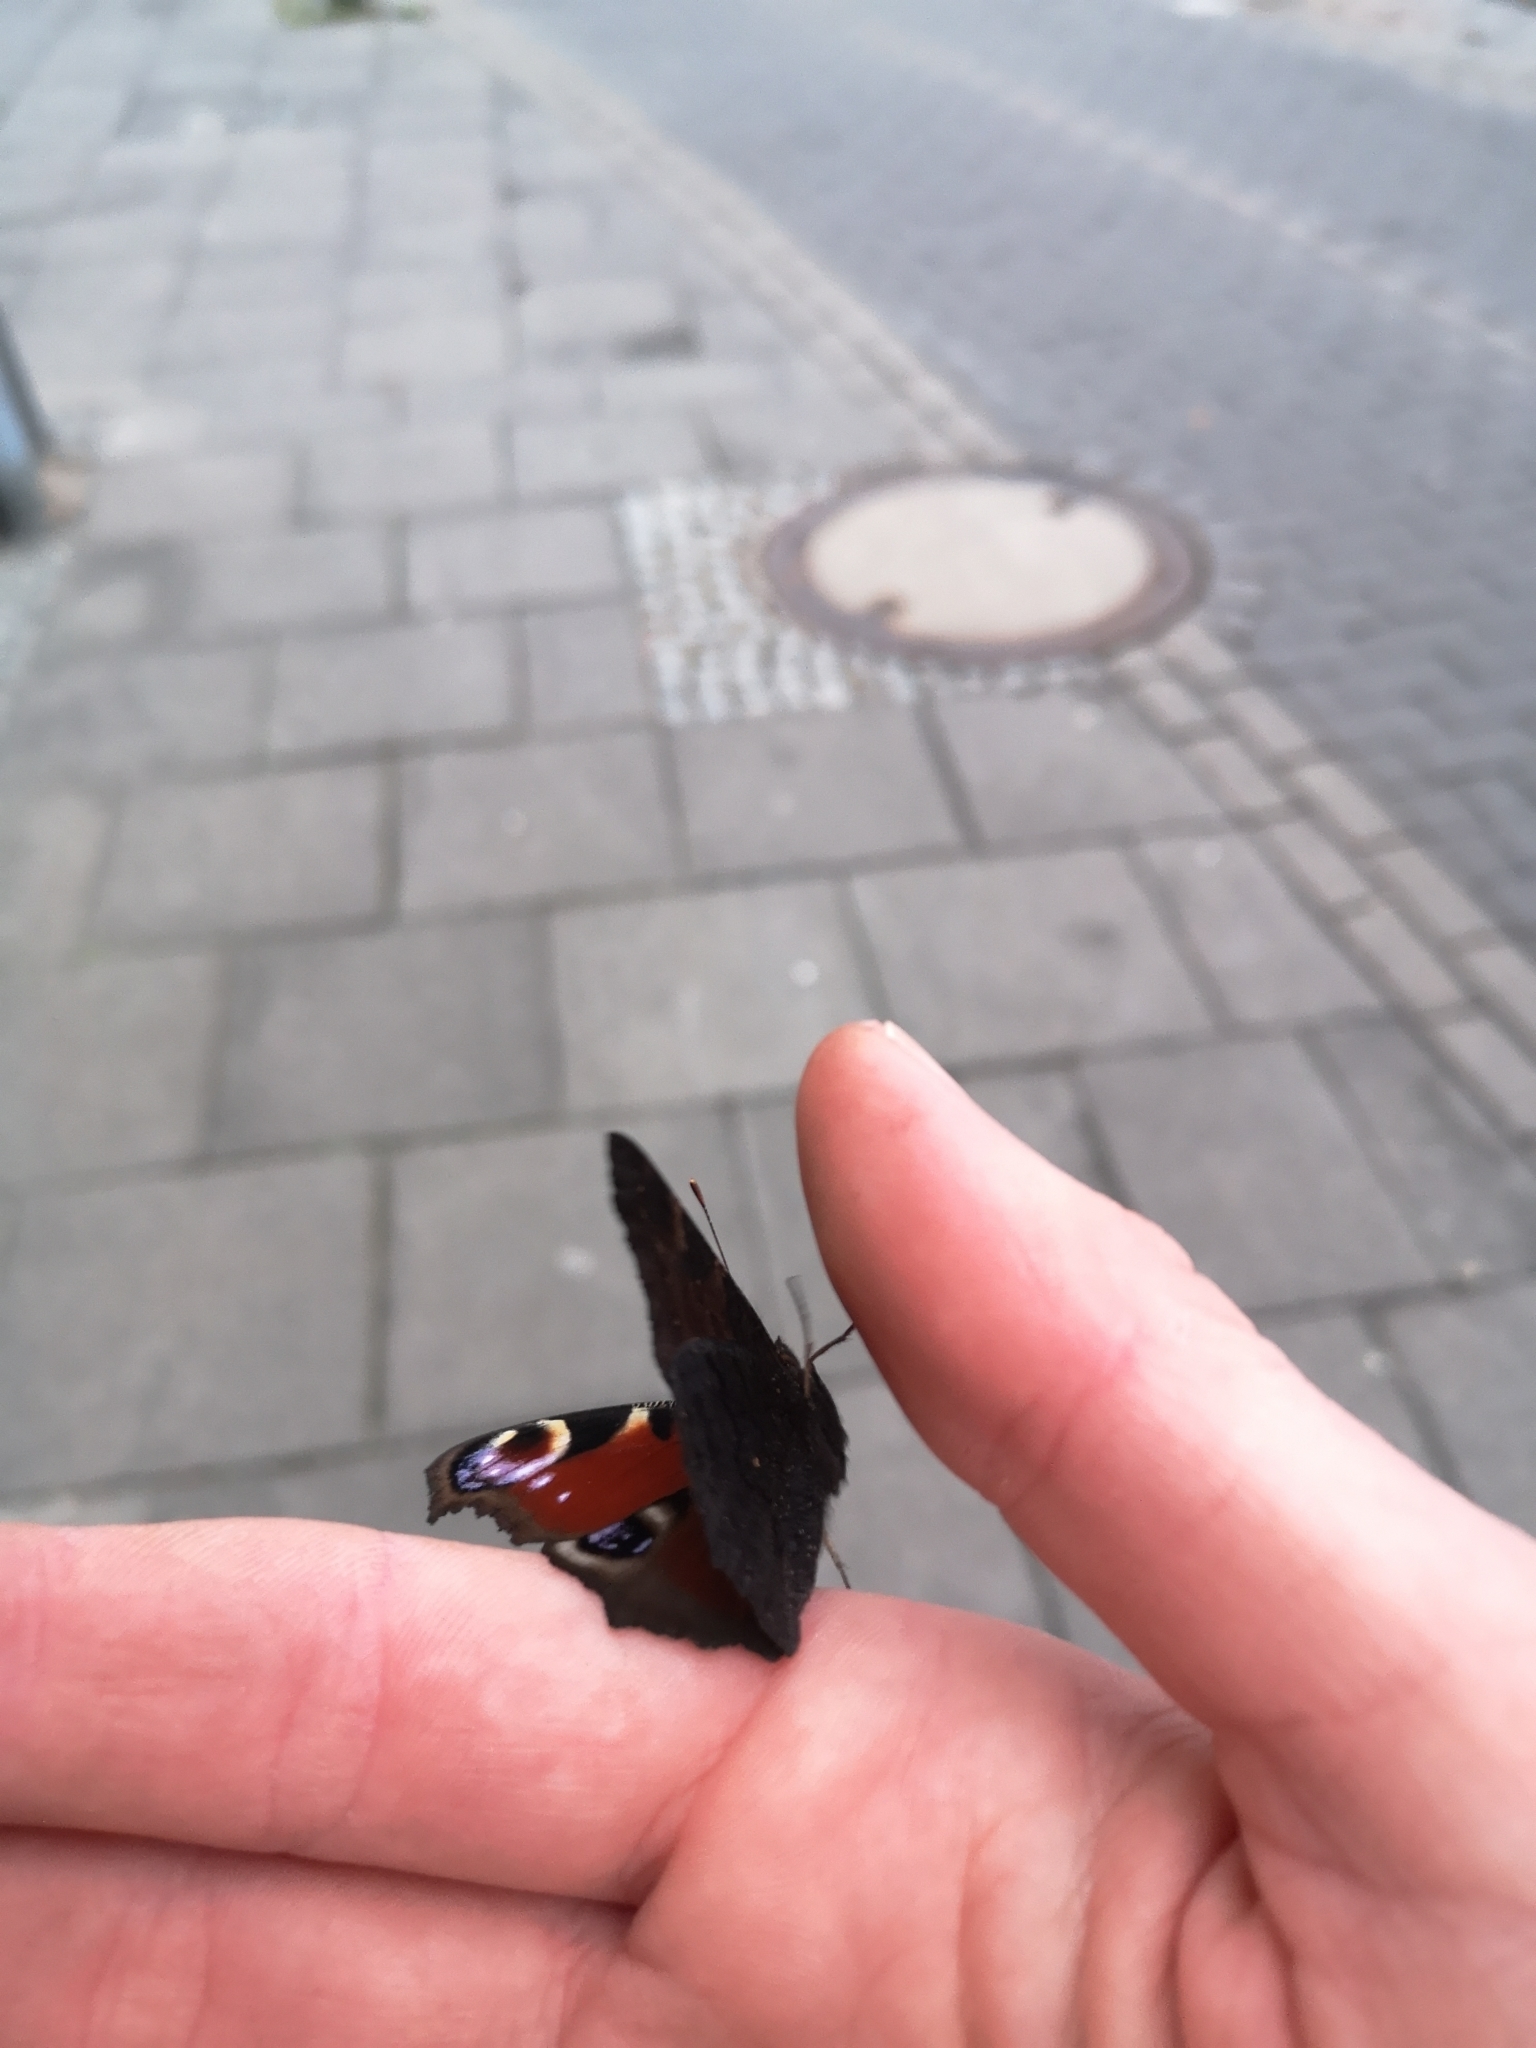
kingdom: Animalia
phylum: Arthropoda
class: Insecta
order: Lepidoptera
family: Nymphalidae
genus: Aglais
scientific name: Aglais io
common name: Peacock
